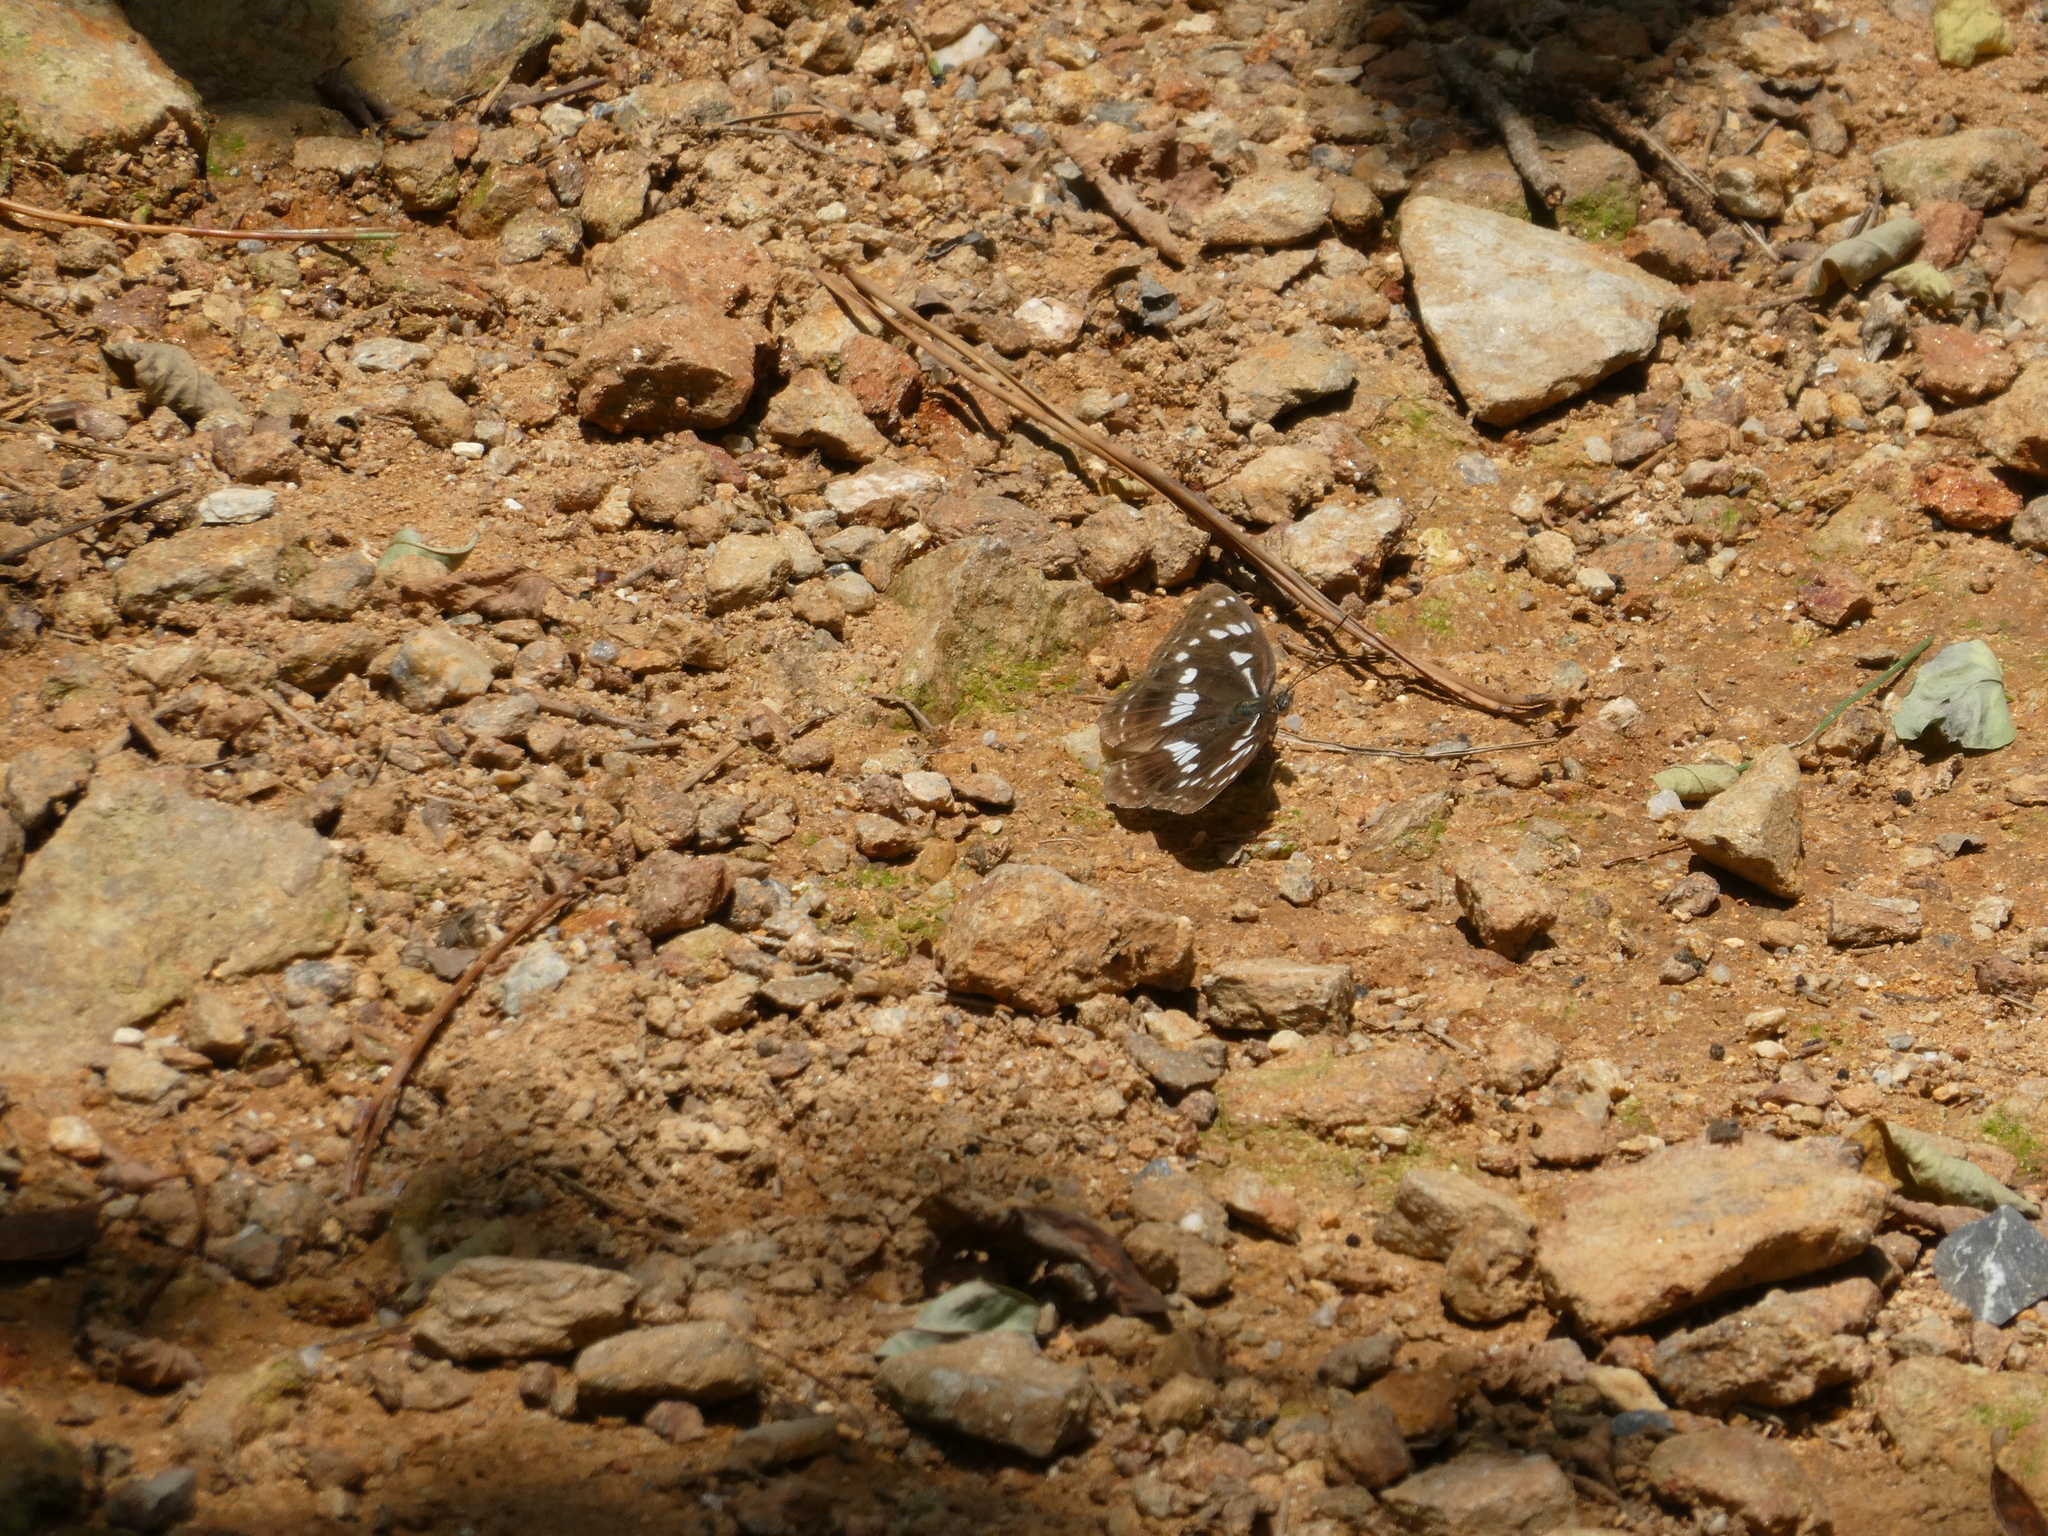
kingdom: Animalia
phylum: Arthropoda
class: Insecta
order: Lepidoptera
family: Nymphalidae
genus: Limenitis
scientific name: Limenitis helmanni
